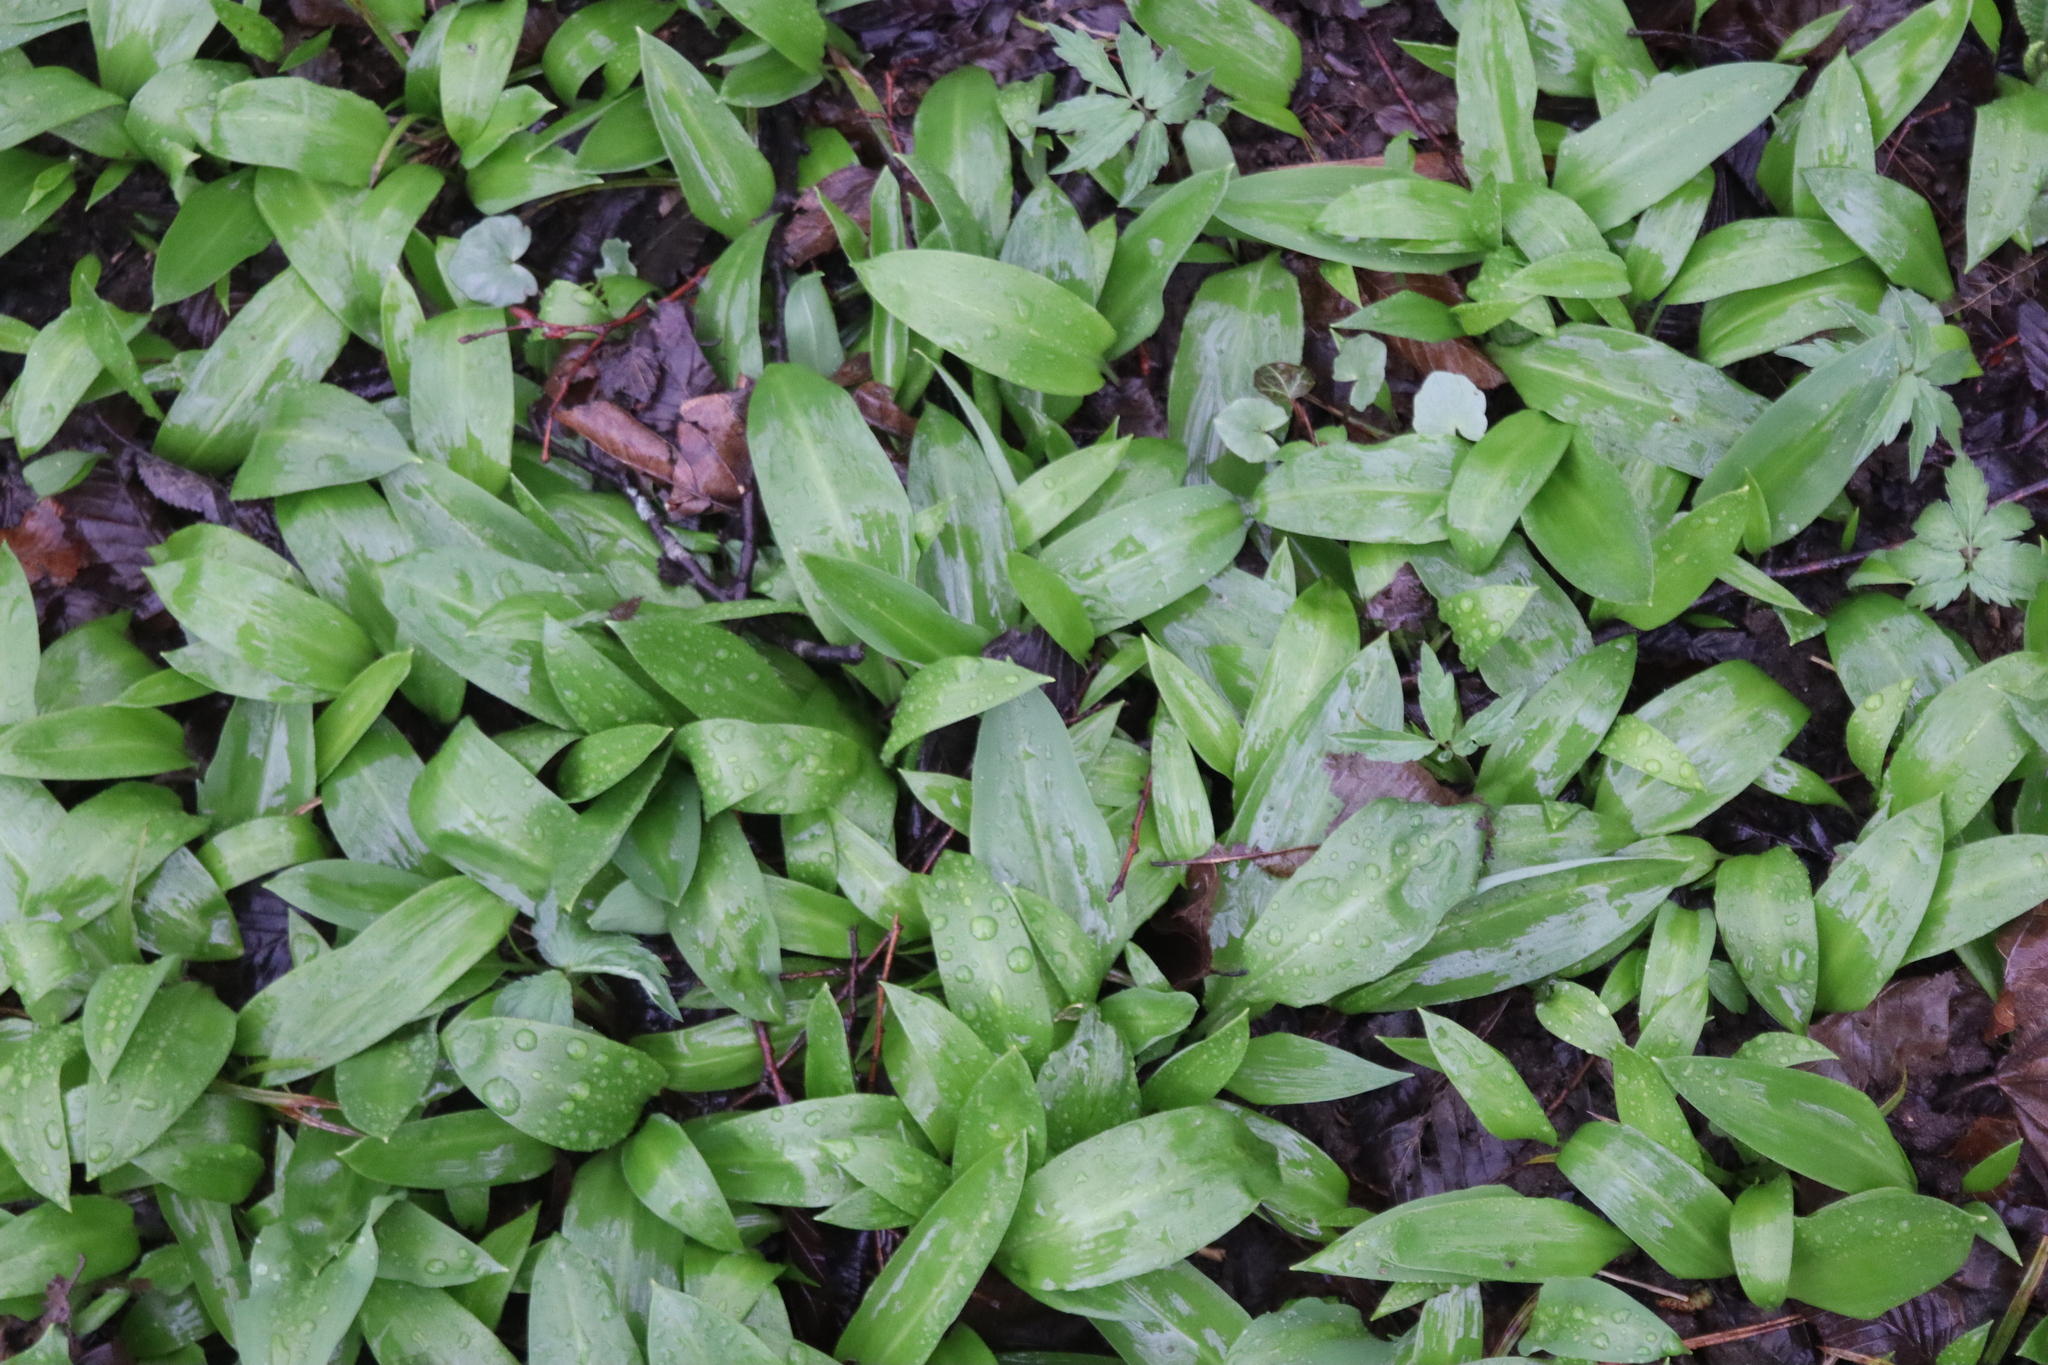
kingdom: Plantae
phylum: Tracheophyta
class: Liliopsida
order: Asparagales
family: Amaryllidaceae
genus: Allium
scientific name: Allium ursinum
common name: Ramsons
